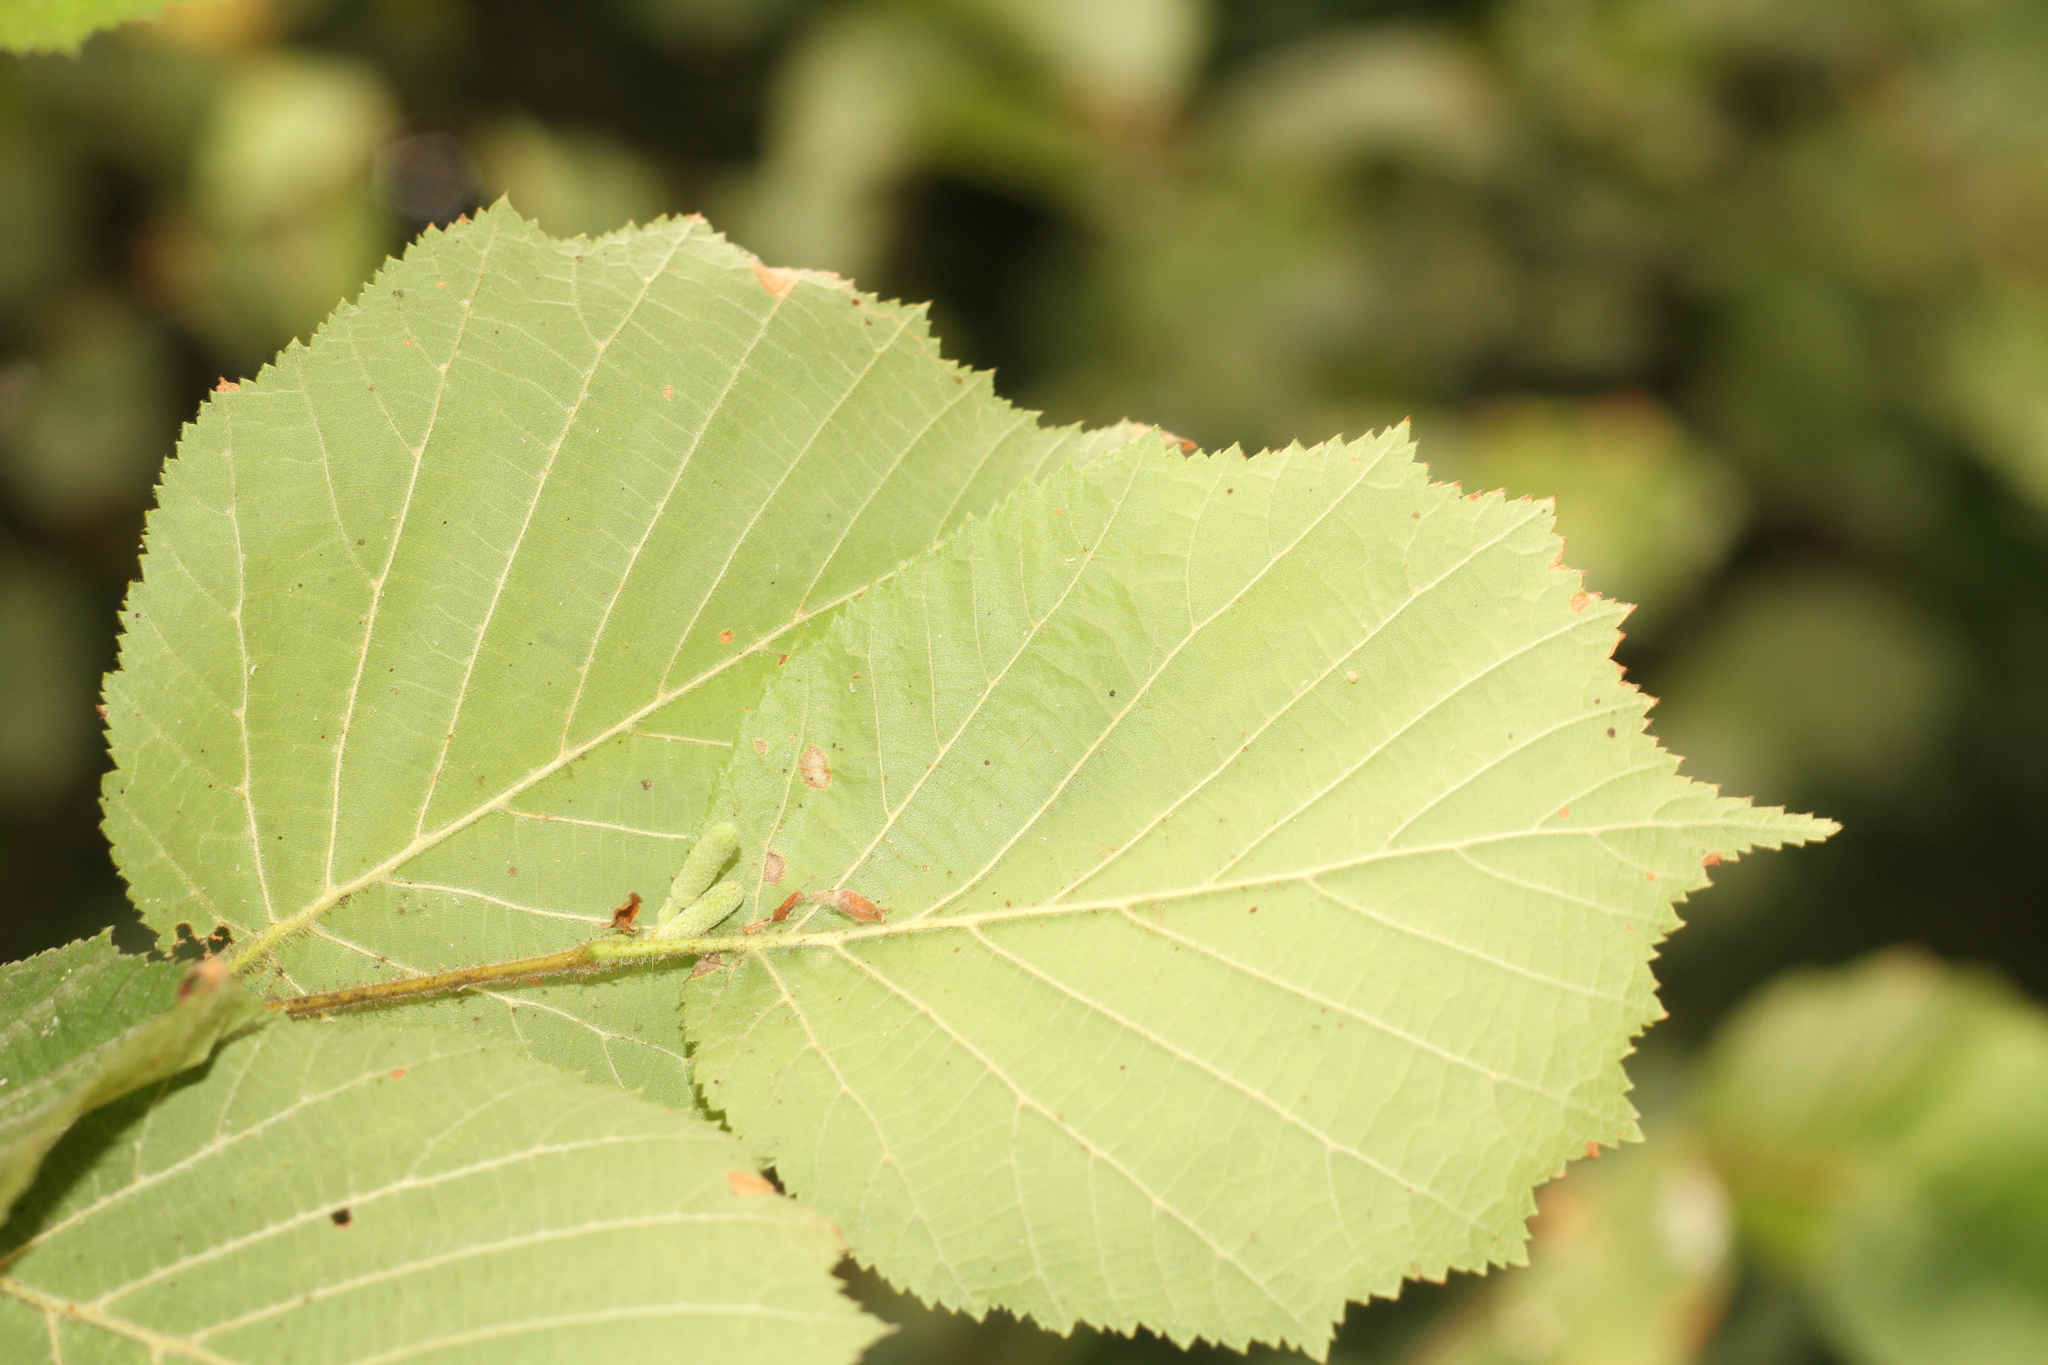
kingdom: Plantae
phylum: Tracheophyta
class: Magnoliopsida
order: Fagales
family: Betulaceae
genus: Corylus
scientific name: Corylus avellana
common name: European hazel
